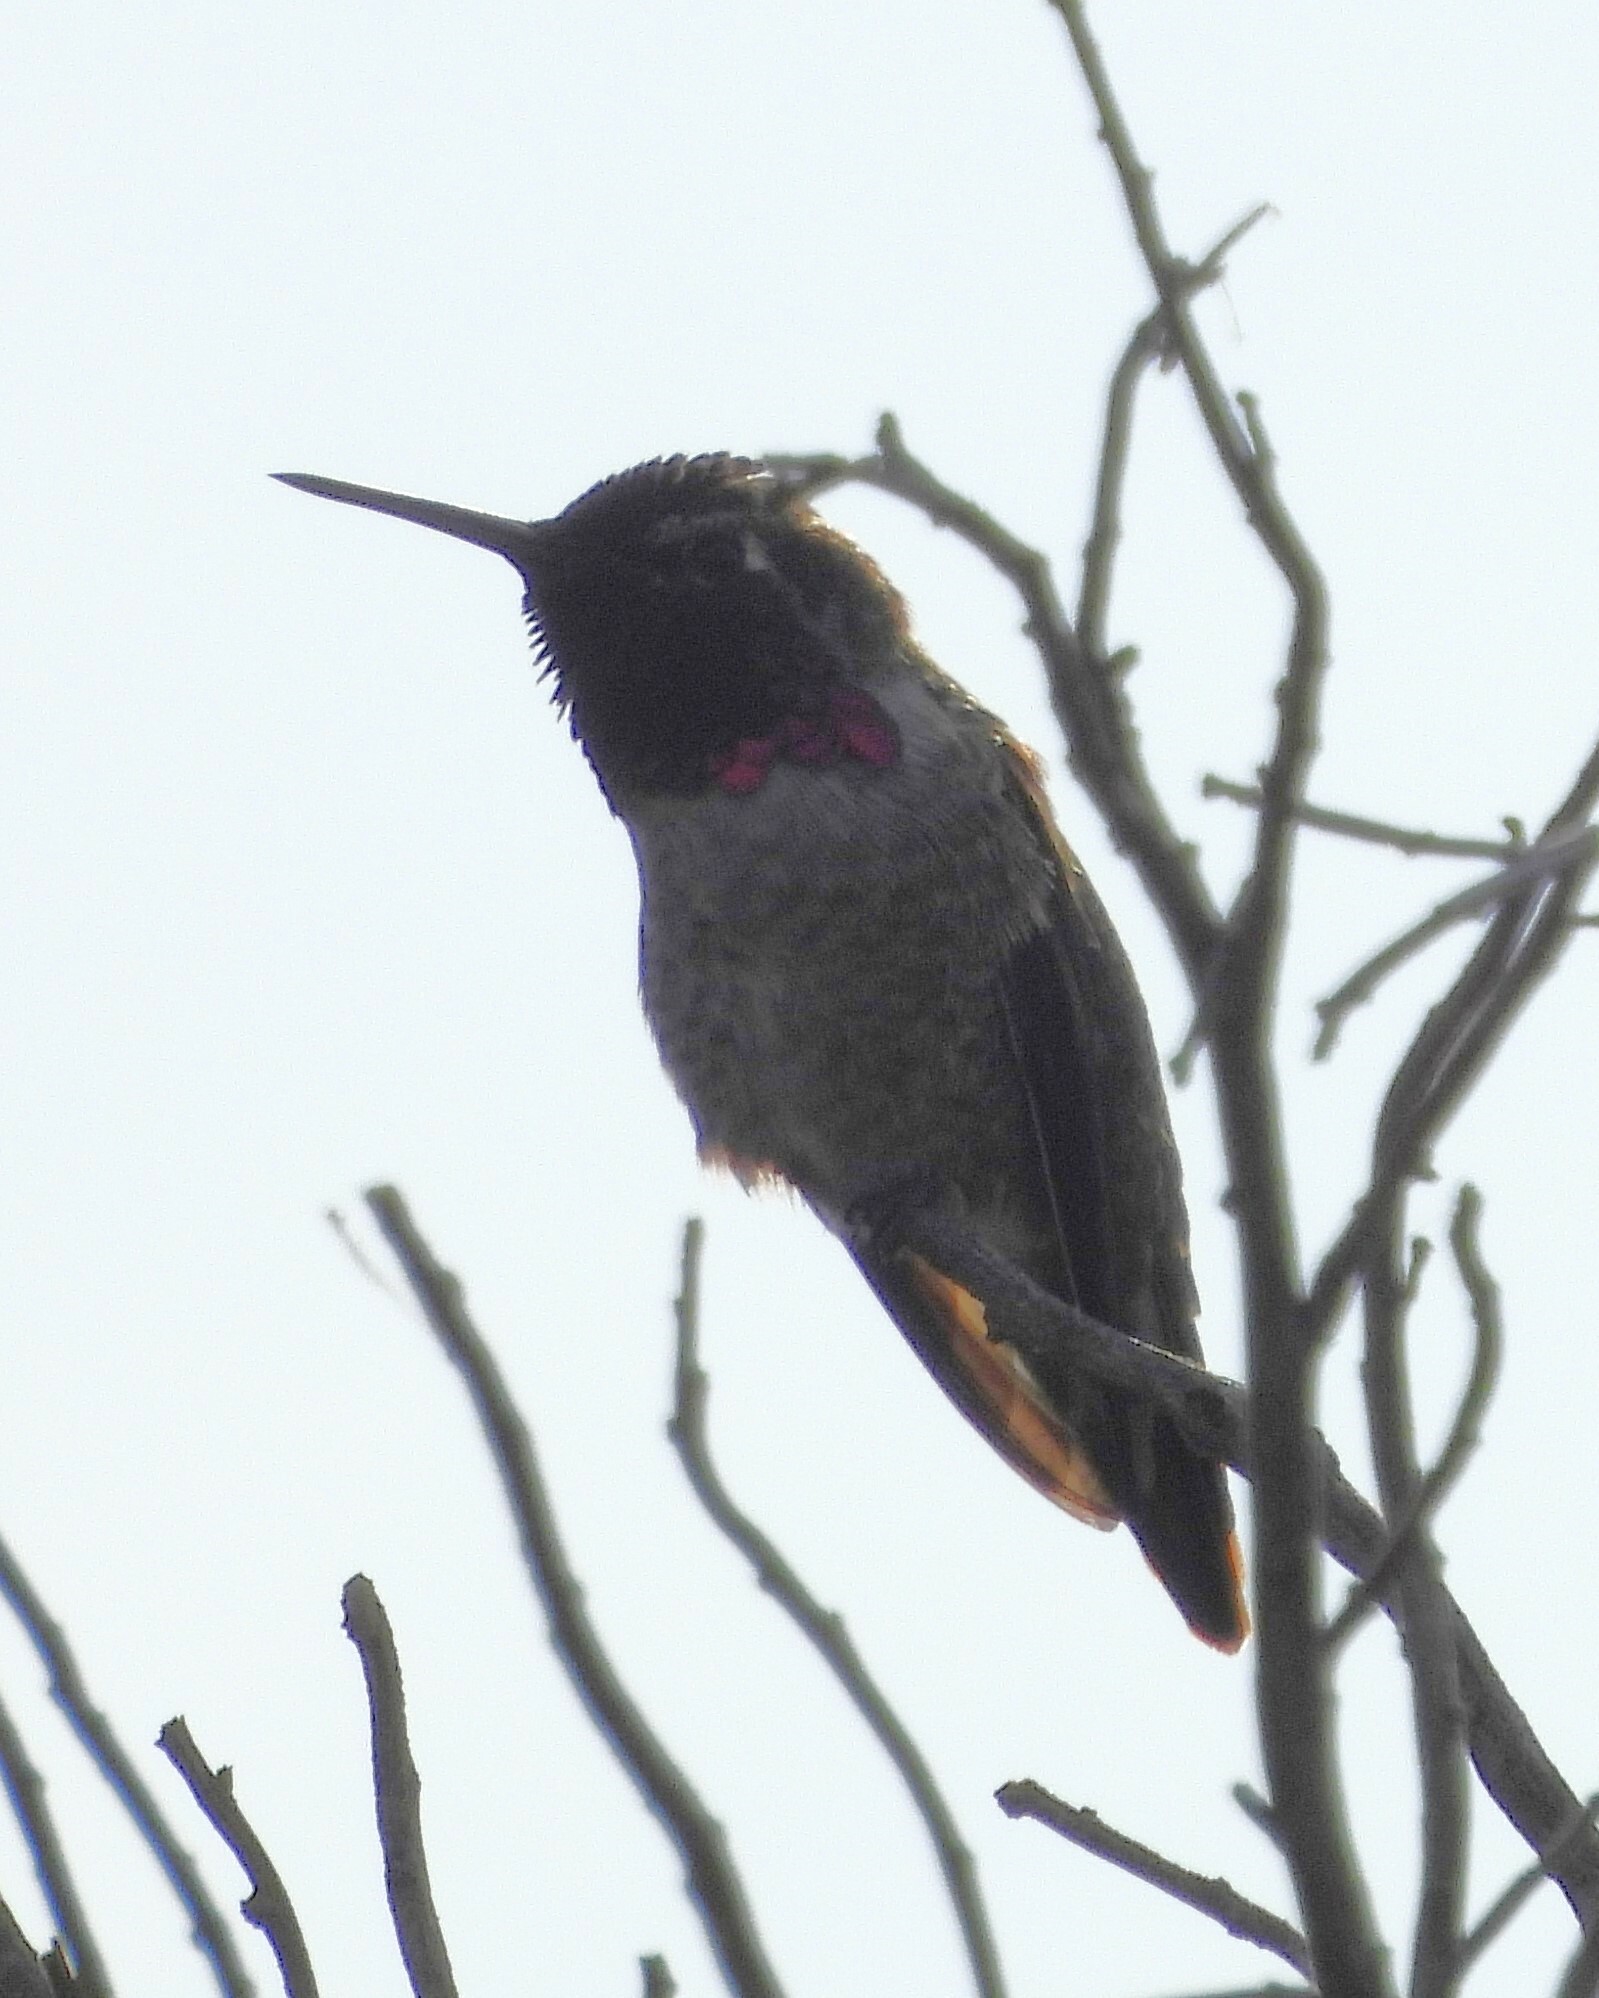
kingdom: Animalia
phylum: Chordata
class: Aves
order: Apodiformes
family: Trochilidae
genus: Calypte
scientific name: Calypte anna
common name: Anna's hummingbird
